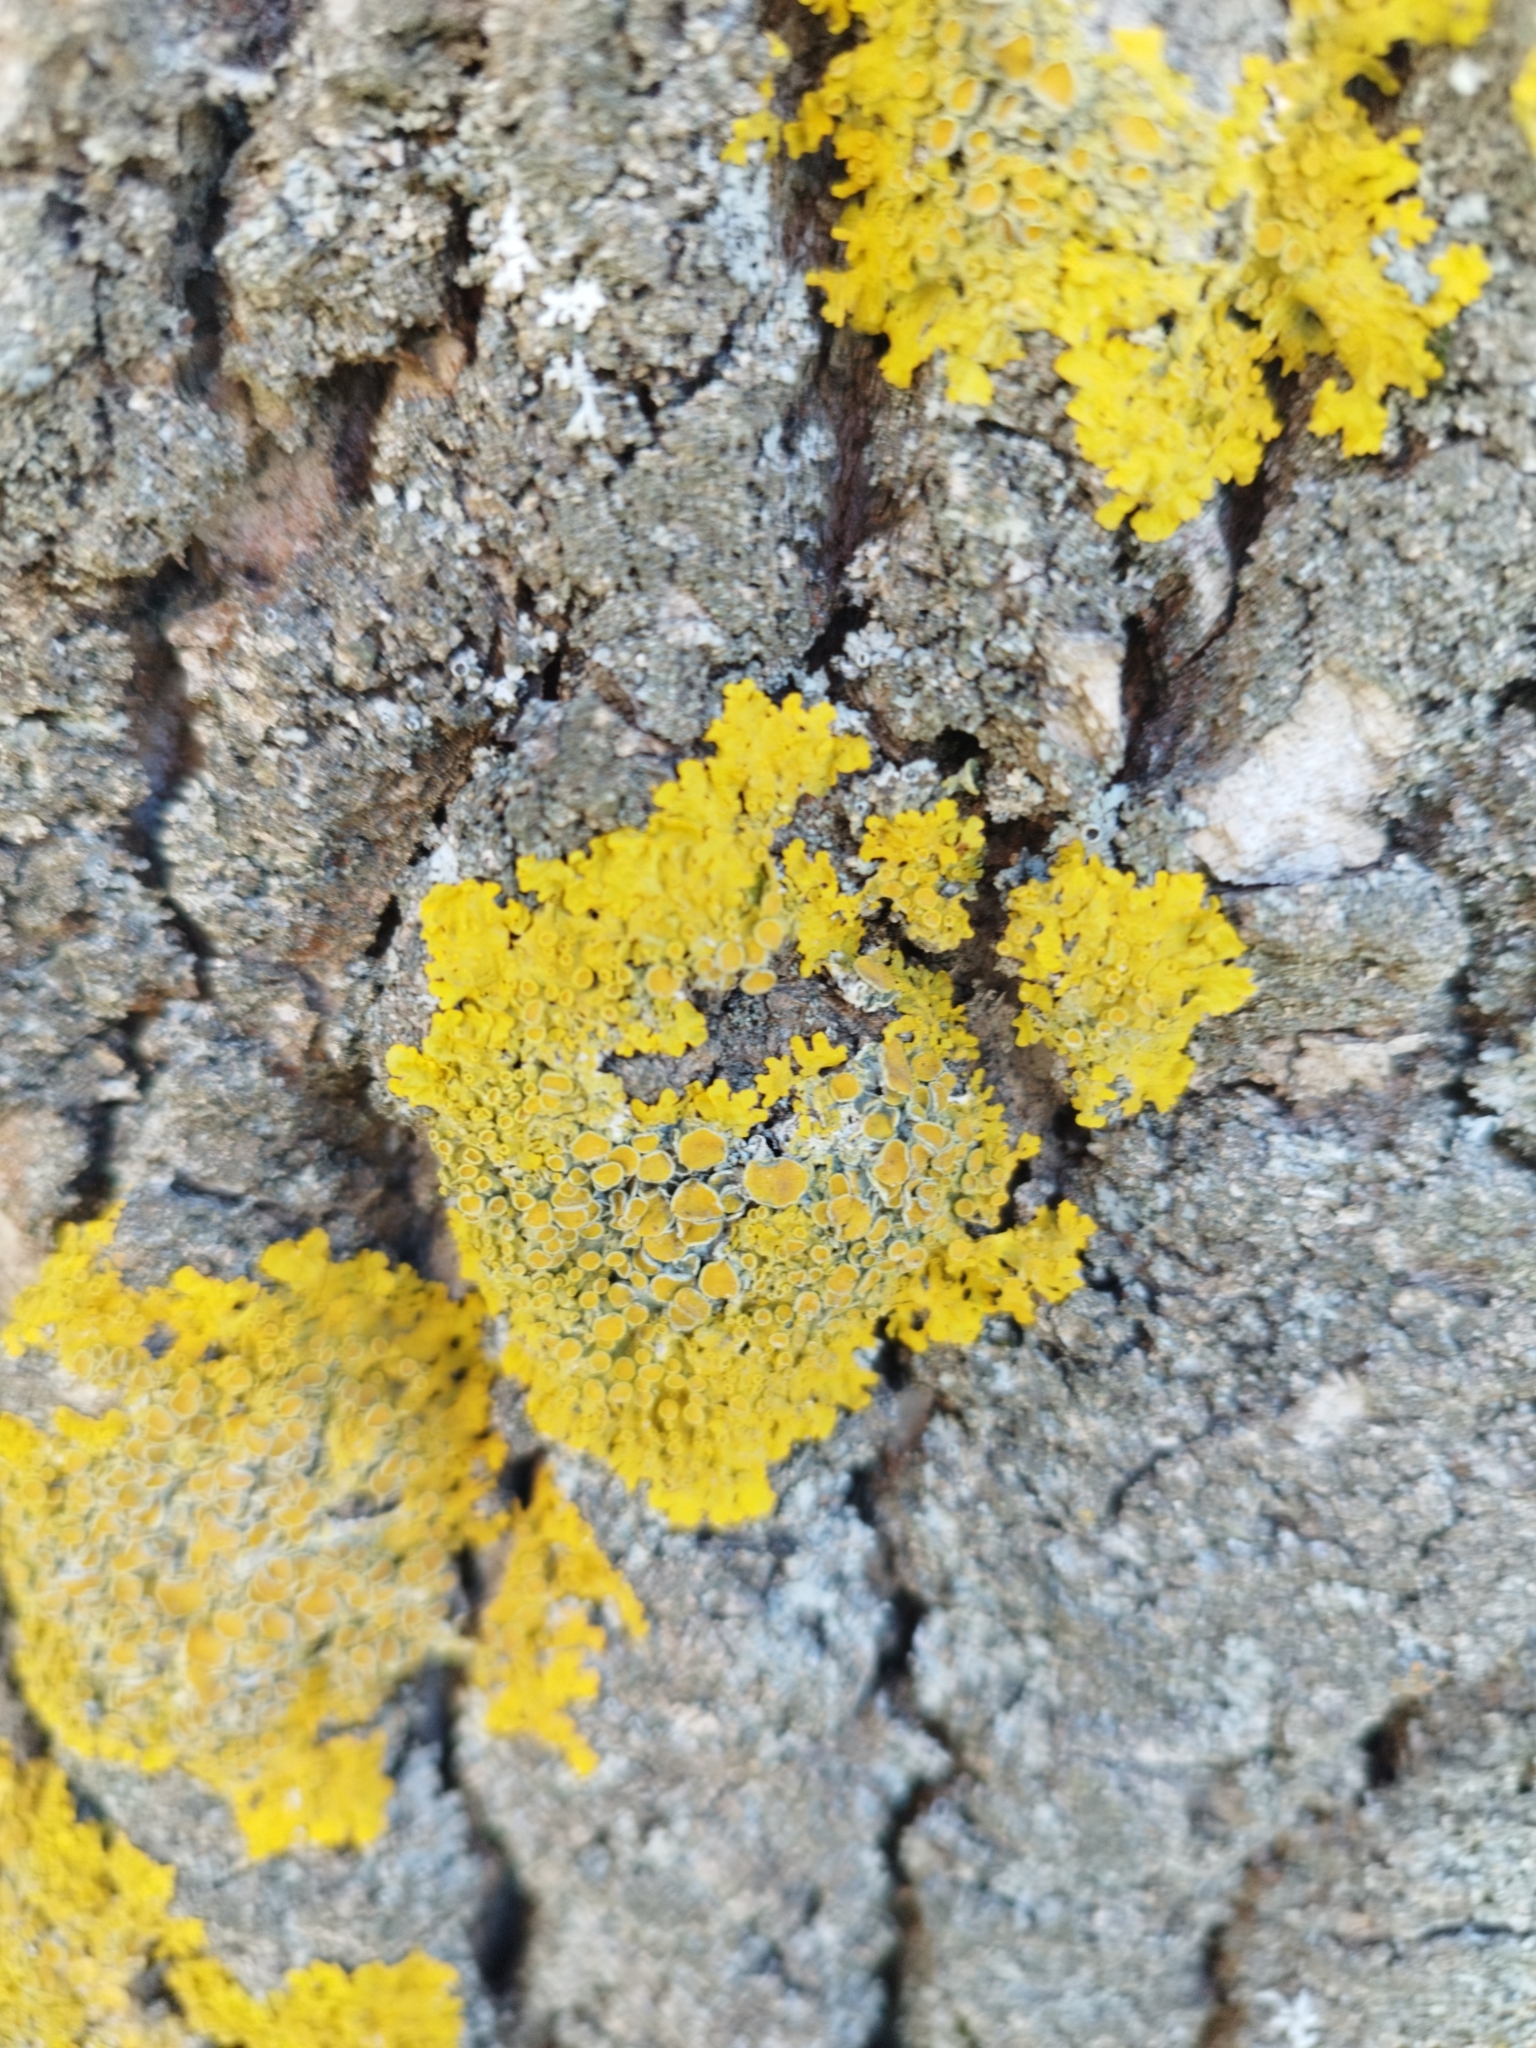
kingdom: Fungi
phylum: Ascomycota
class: Lecanoromycetes
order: Teloschistales
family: Teloschistaceae
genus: Xanthoria
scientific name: Xanthoria parietina
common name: Common orange lichen
